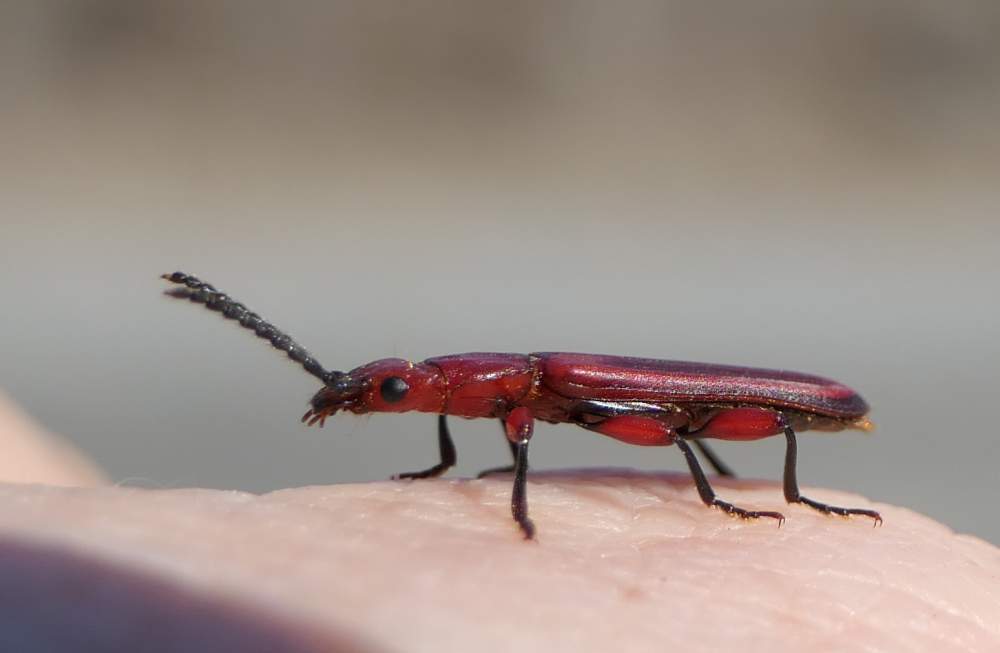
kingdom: Animalia
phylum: Arthropoda
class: Insecta
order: Coleoptera
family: Cucujidae
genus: Cucujus
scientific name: Cucujus clavipes
